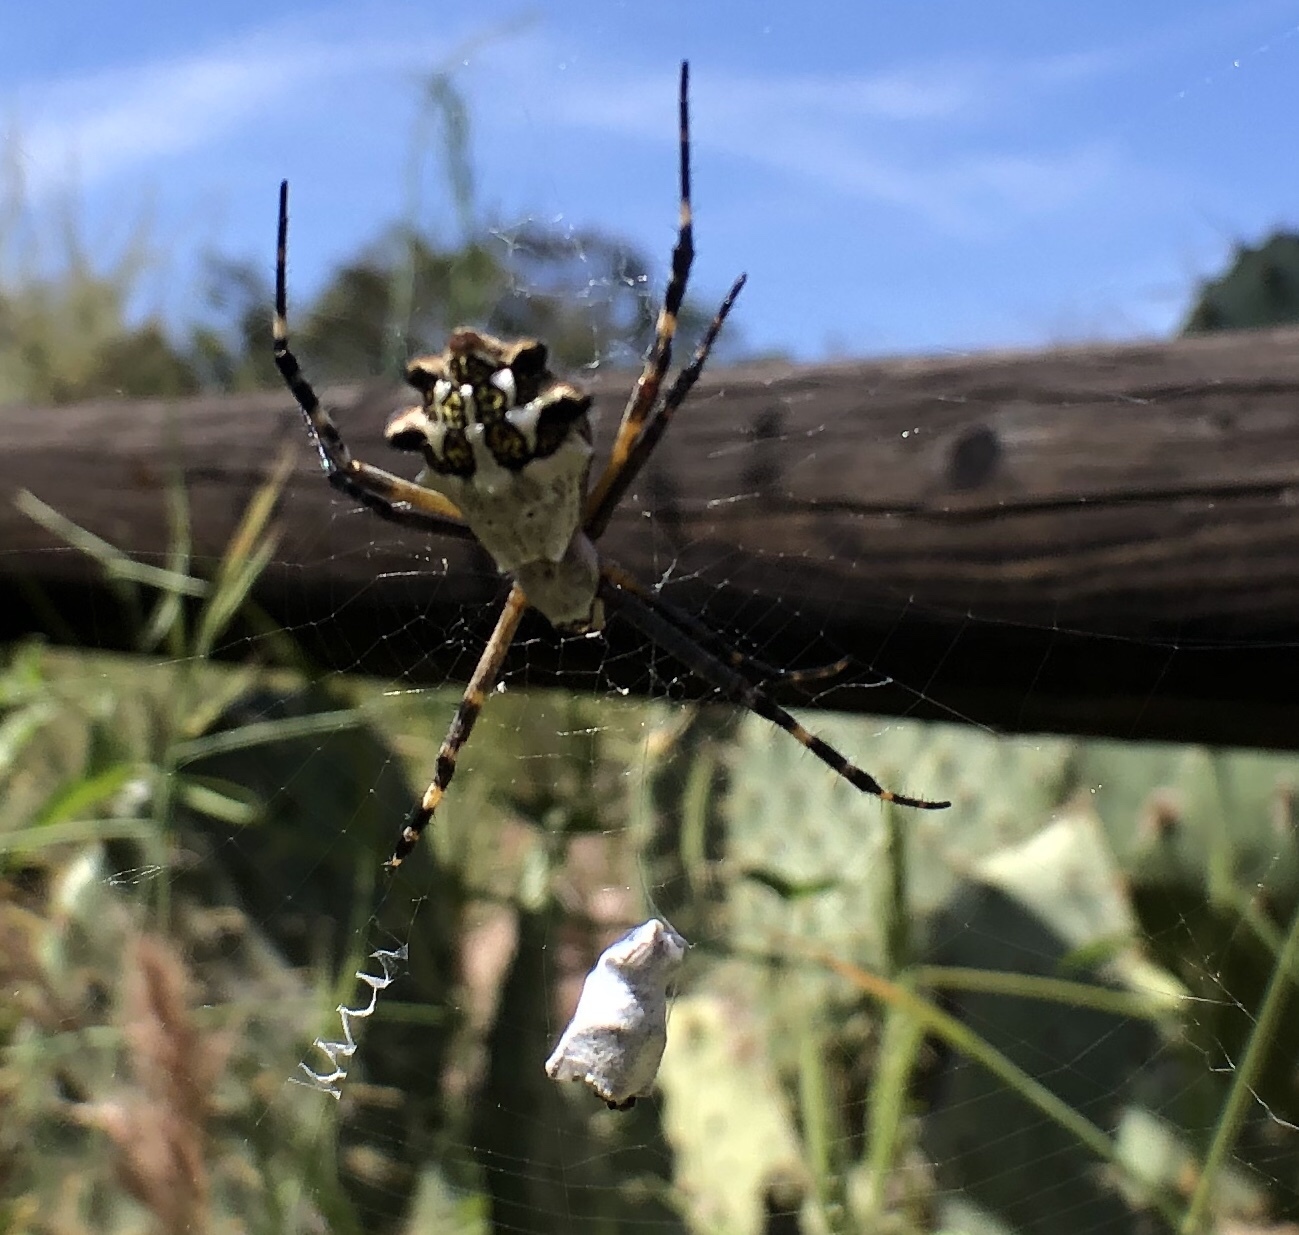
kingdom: Animalia
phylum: Arthropoda
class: Arachnida
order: Araneae
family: Araneidae
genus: Argiope
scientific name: Argiope argentata
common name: Orb weavers
